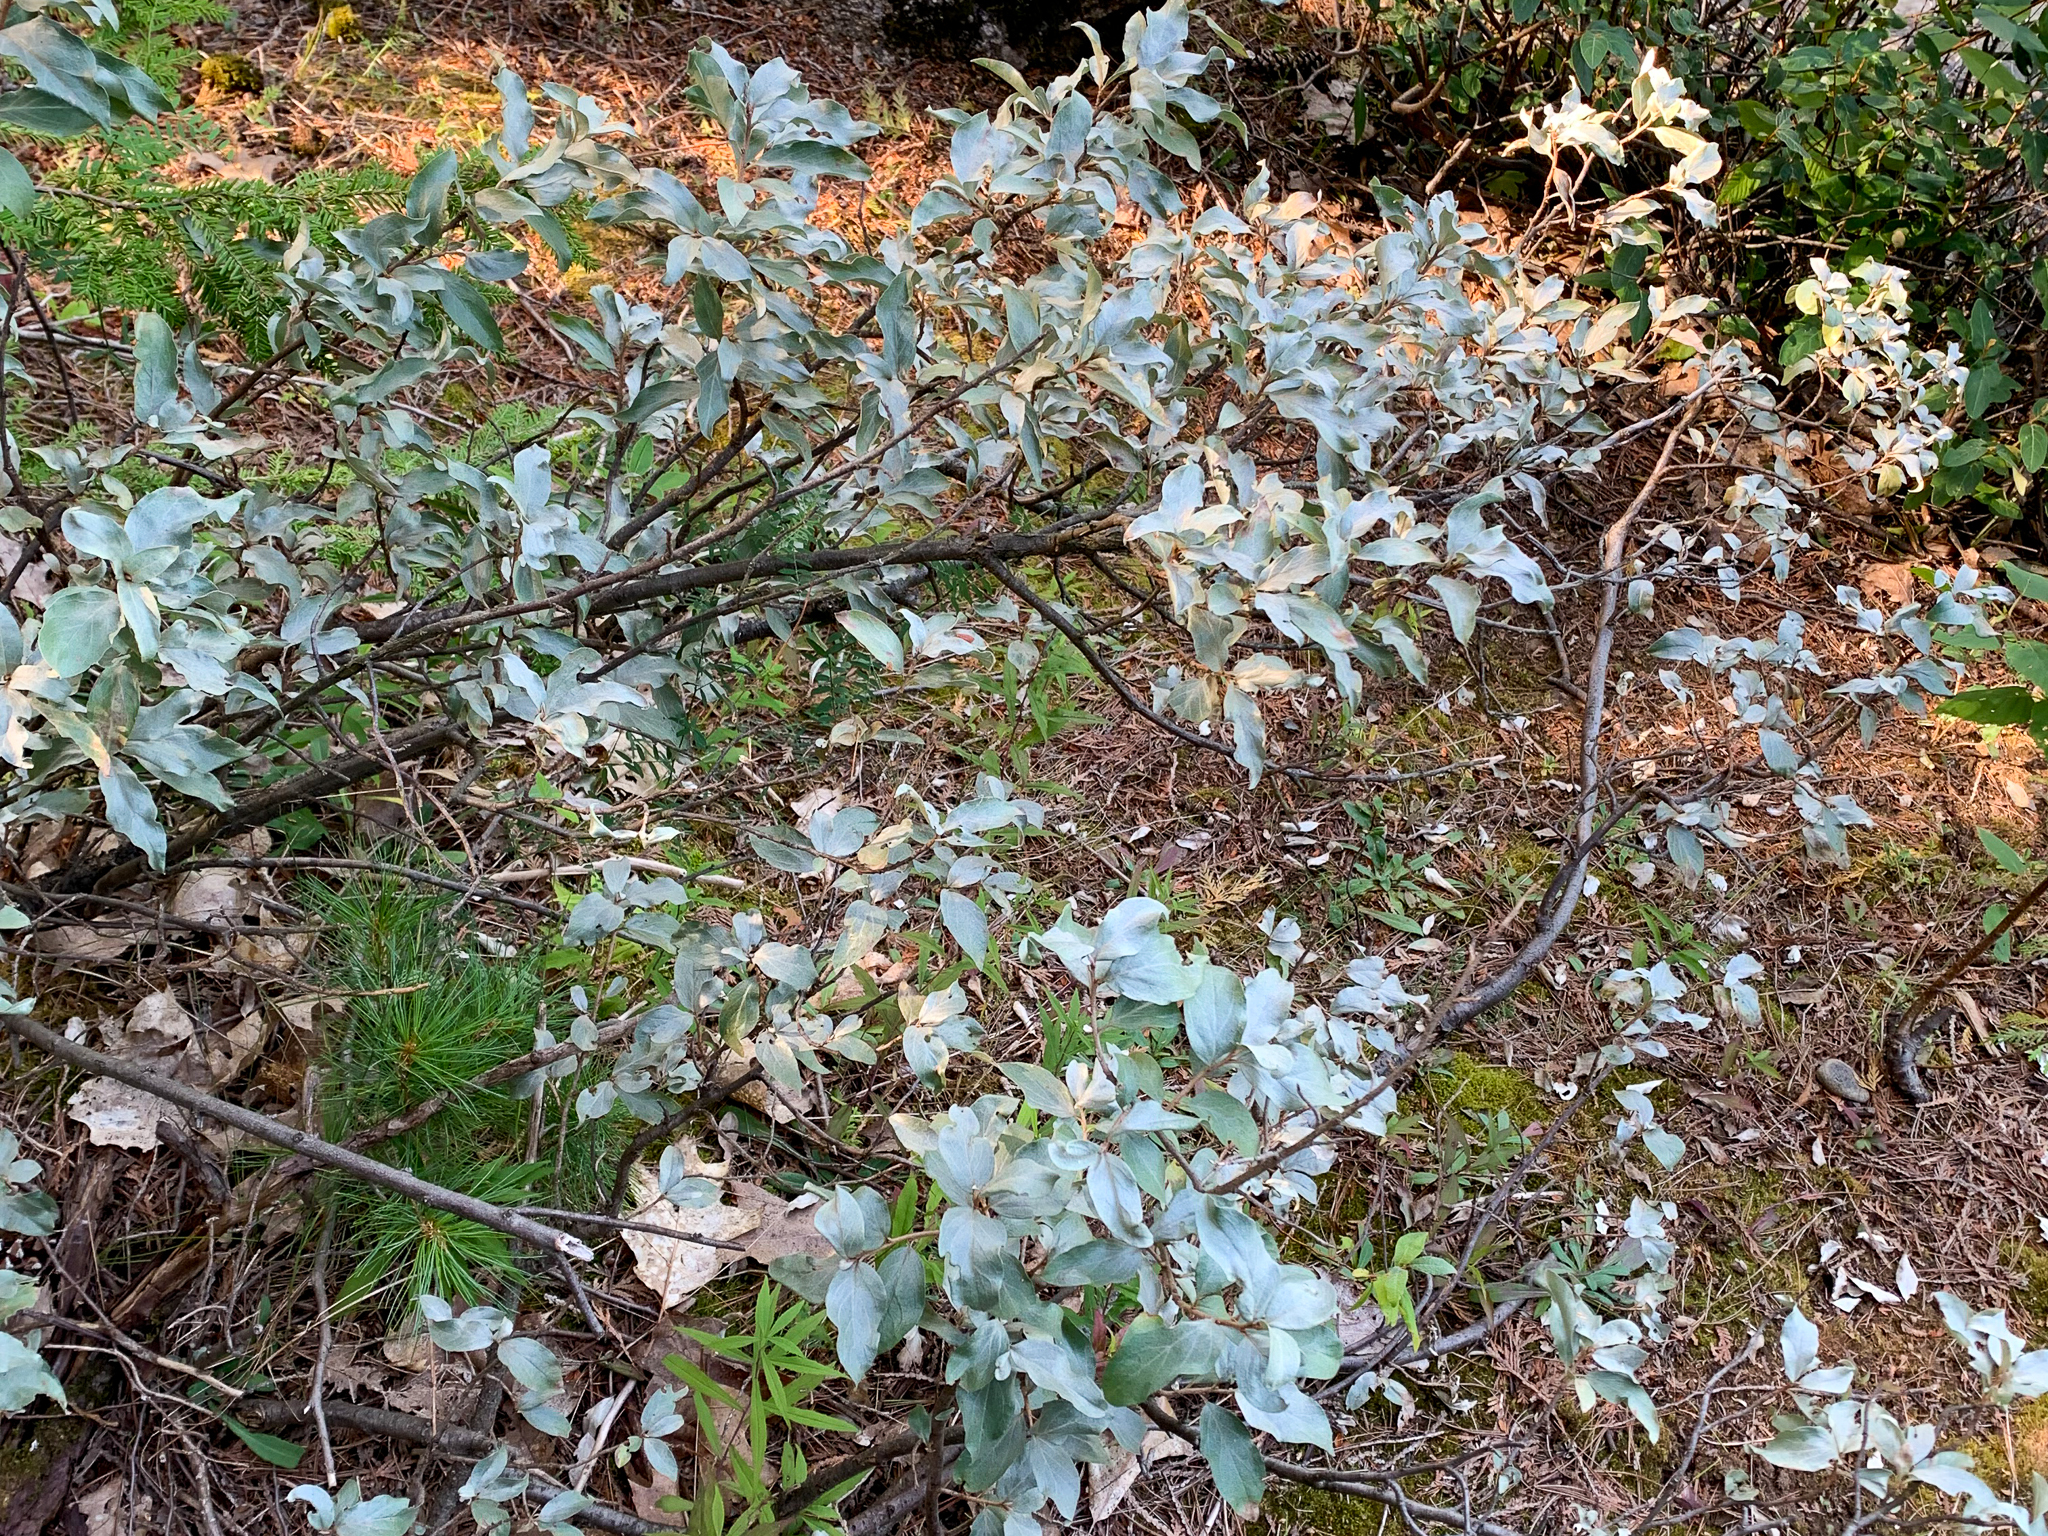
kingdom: Plantae
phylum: Tracheophyta
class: Magnoliopsida
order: Rosales
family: Elaeagnaceae
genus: Elaeagnus
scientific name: Elaeagnus commutata
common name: Silverberry
